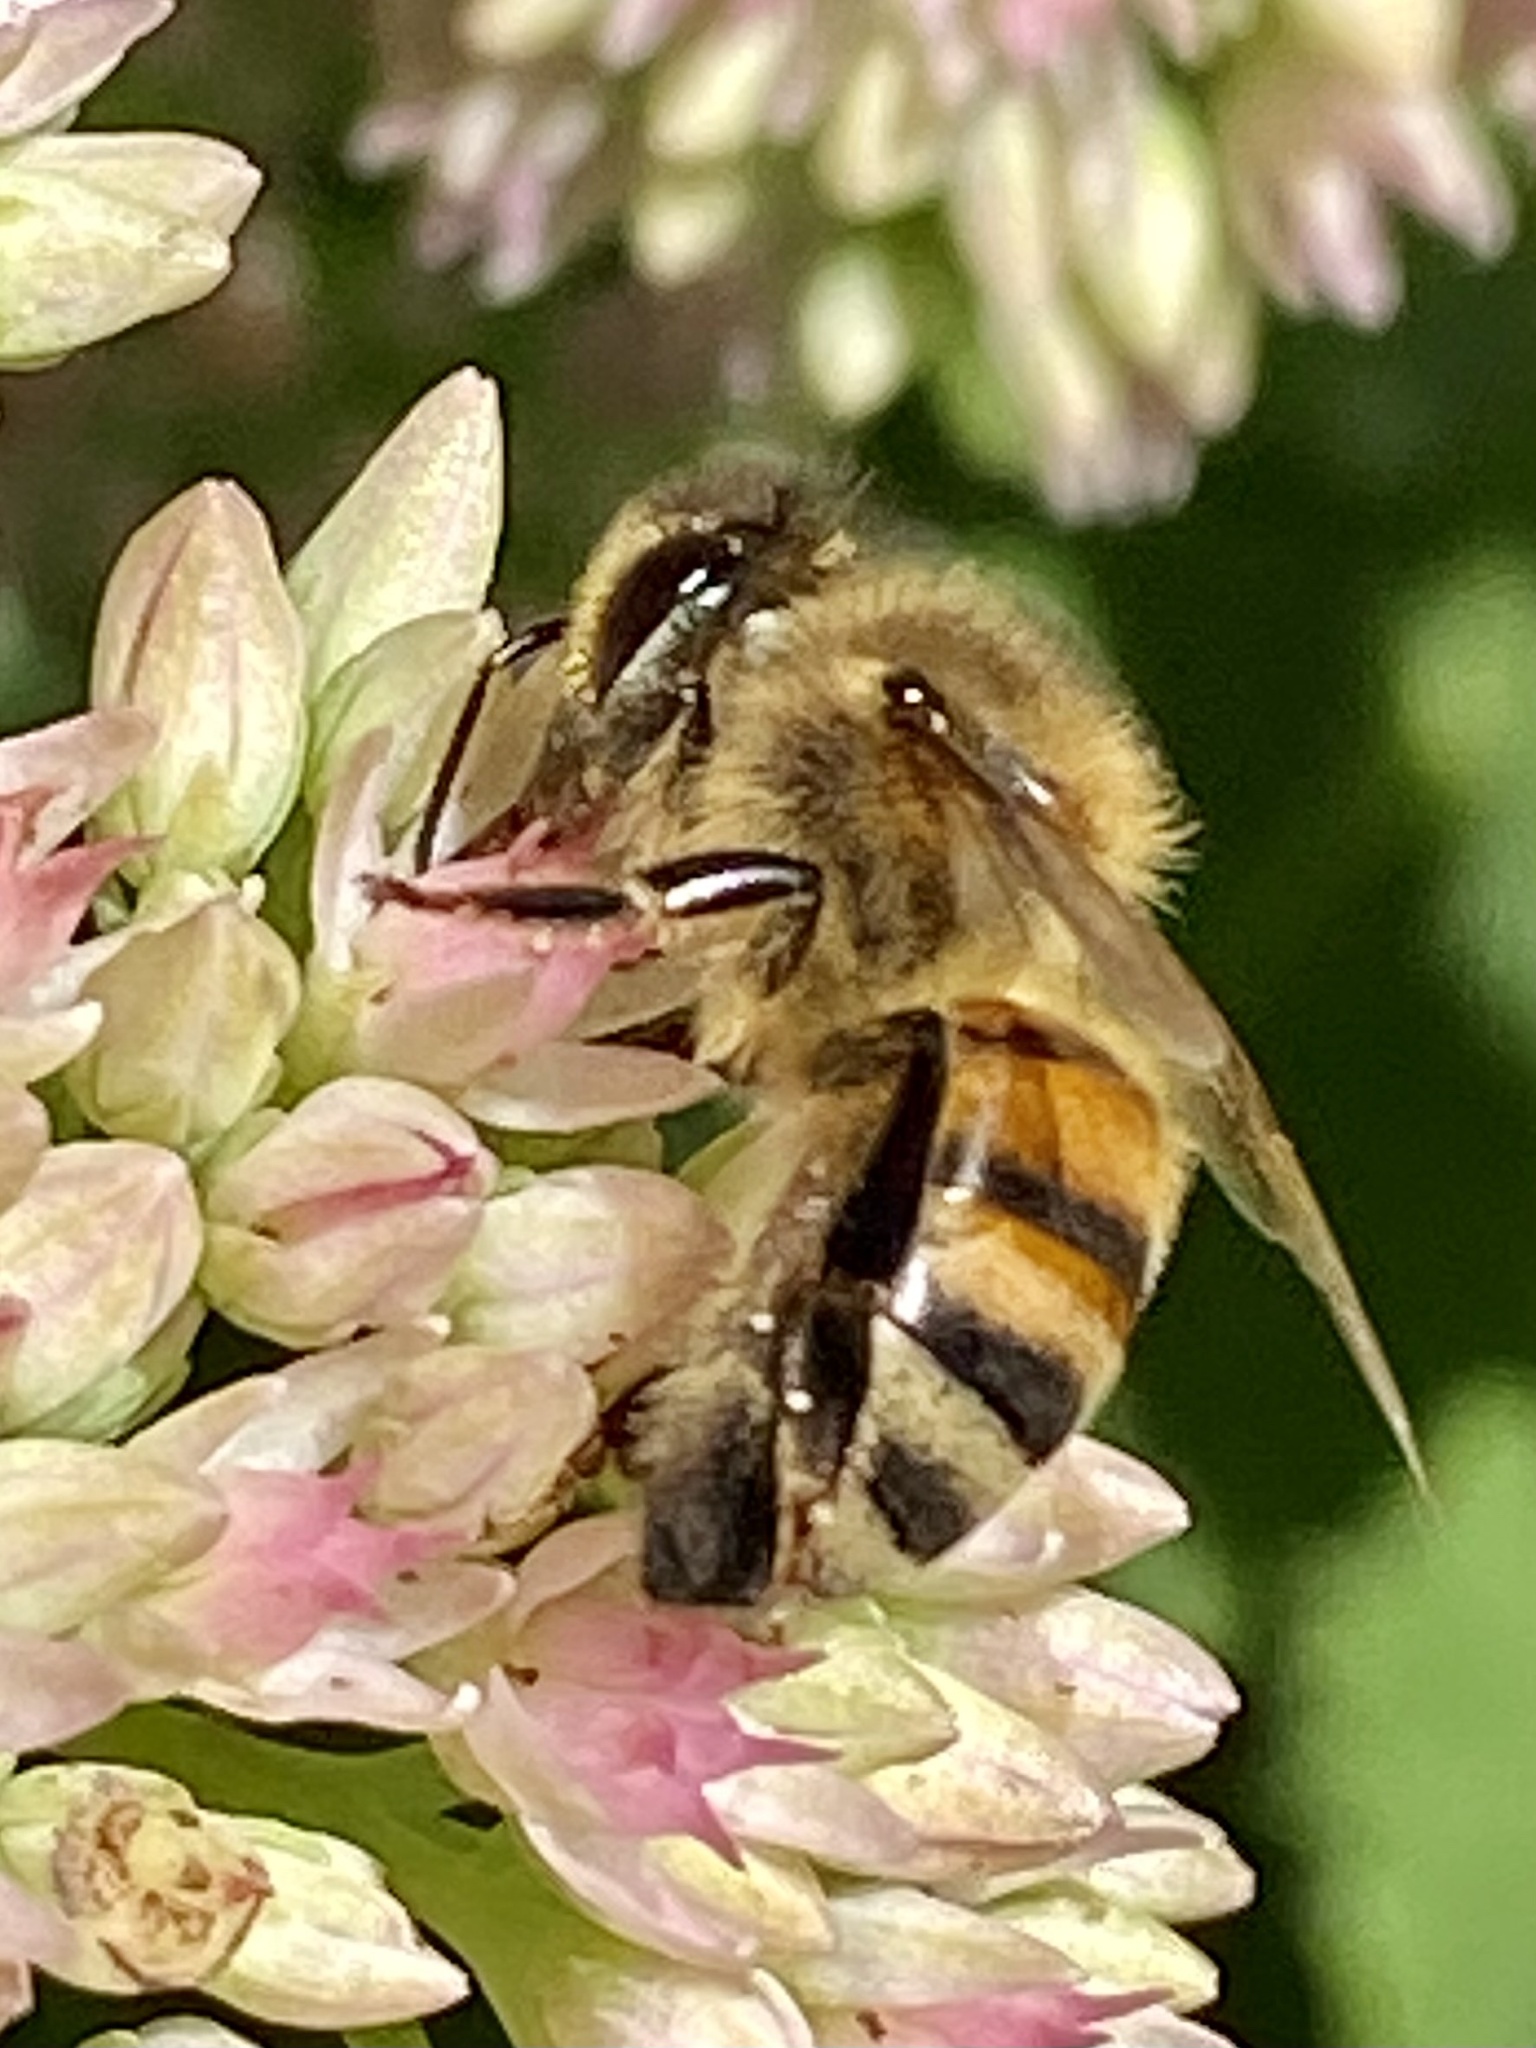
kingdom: Animalia
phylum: Arthropoda
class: Insecta
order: Hymenoptera
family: Apidae
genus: Apis
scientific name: Apis mellifera
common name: Honey bee
